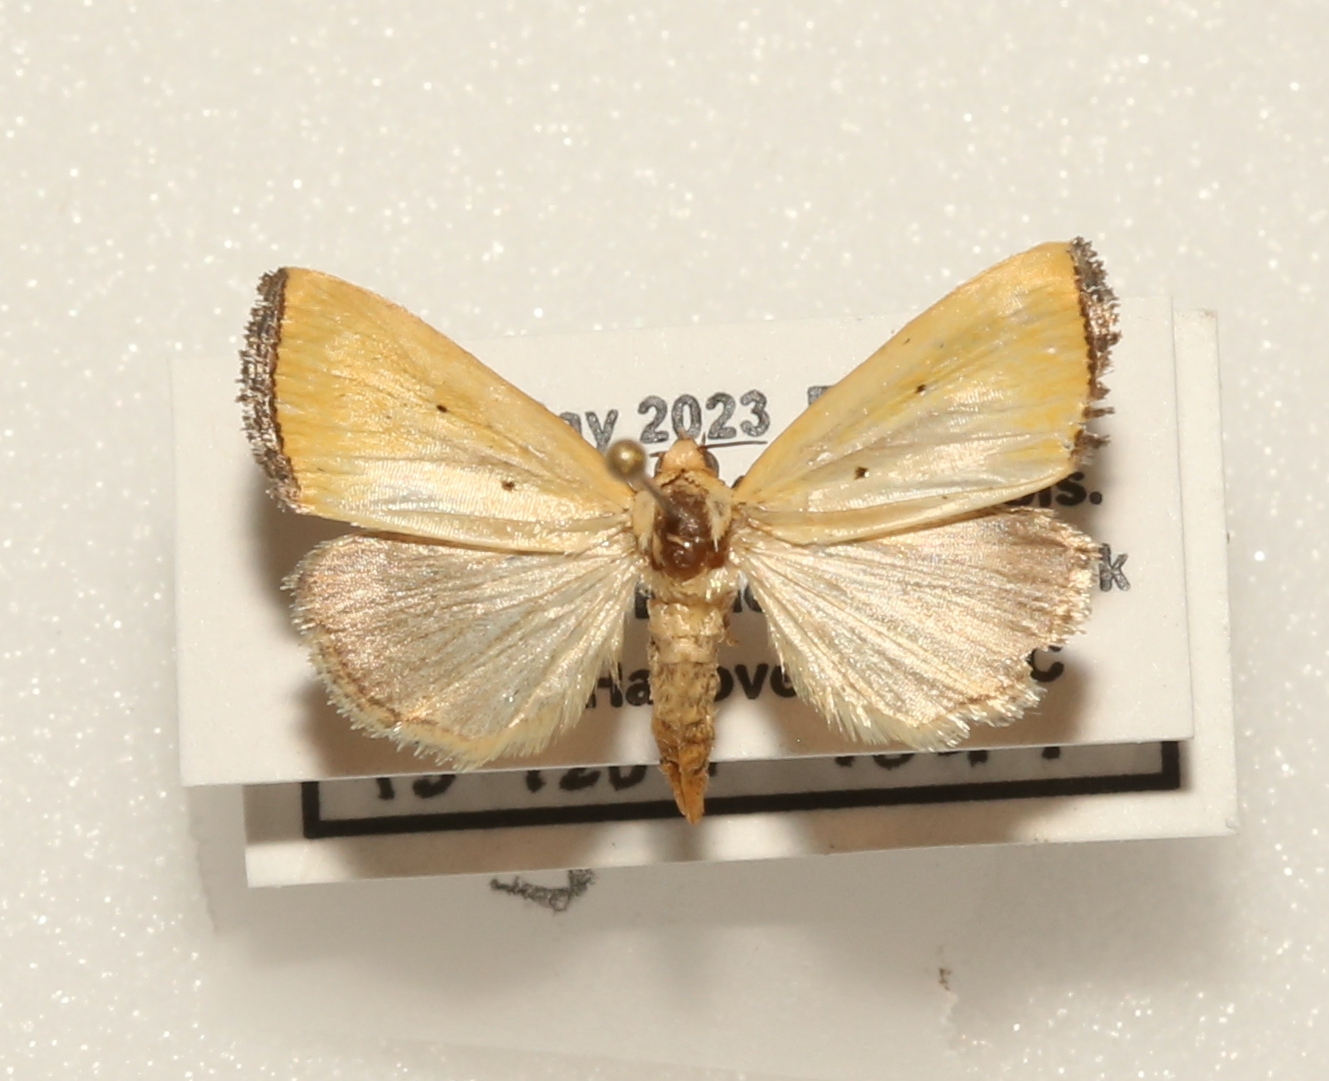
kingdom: Animalia
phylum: Arthropoda
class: Insecta
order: Lepidoptera
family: Noctuidae
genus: Marimatha
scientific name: Marimatha nigrofimbria
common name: Black-bordered lemon moth
